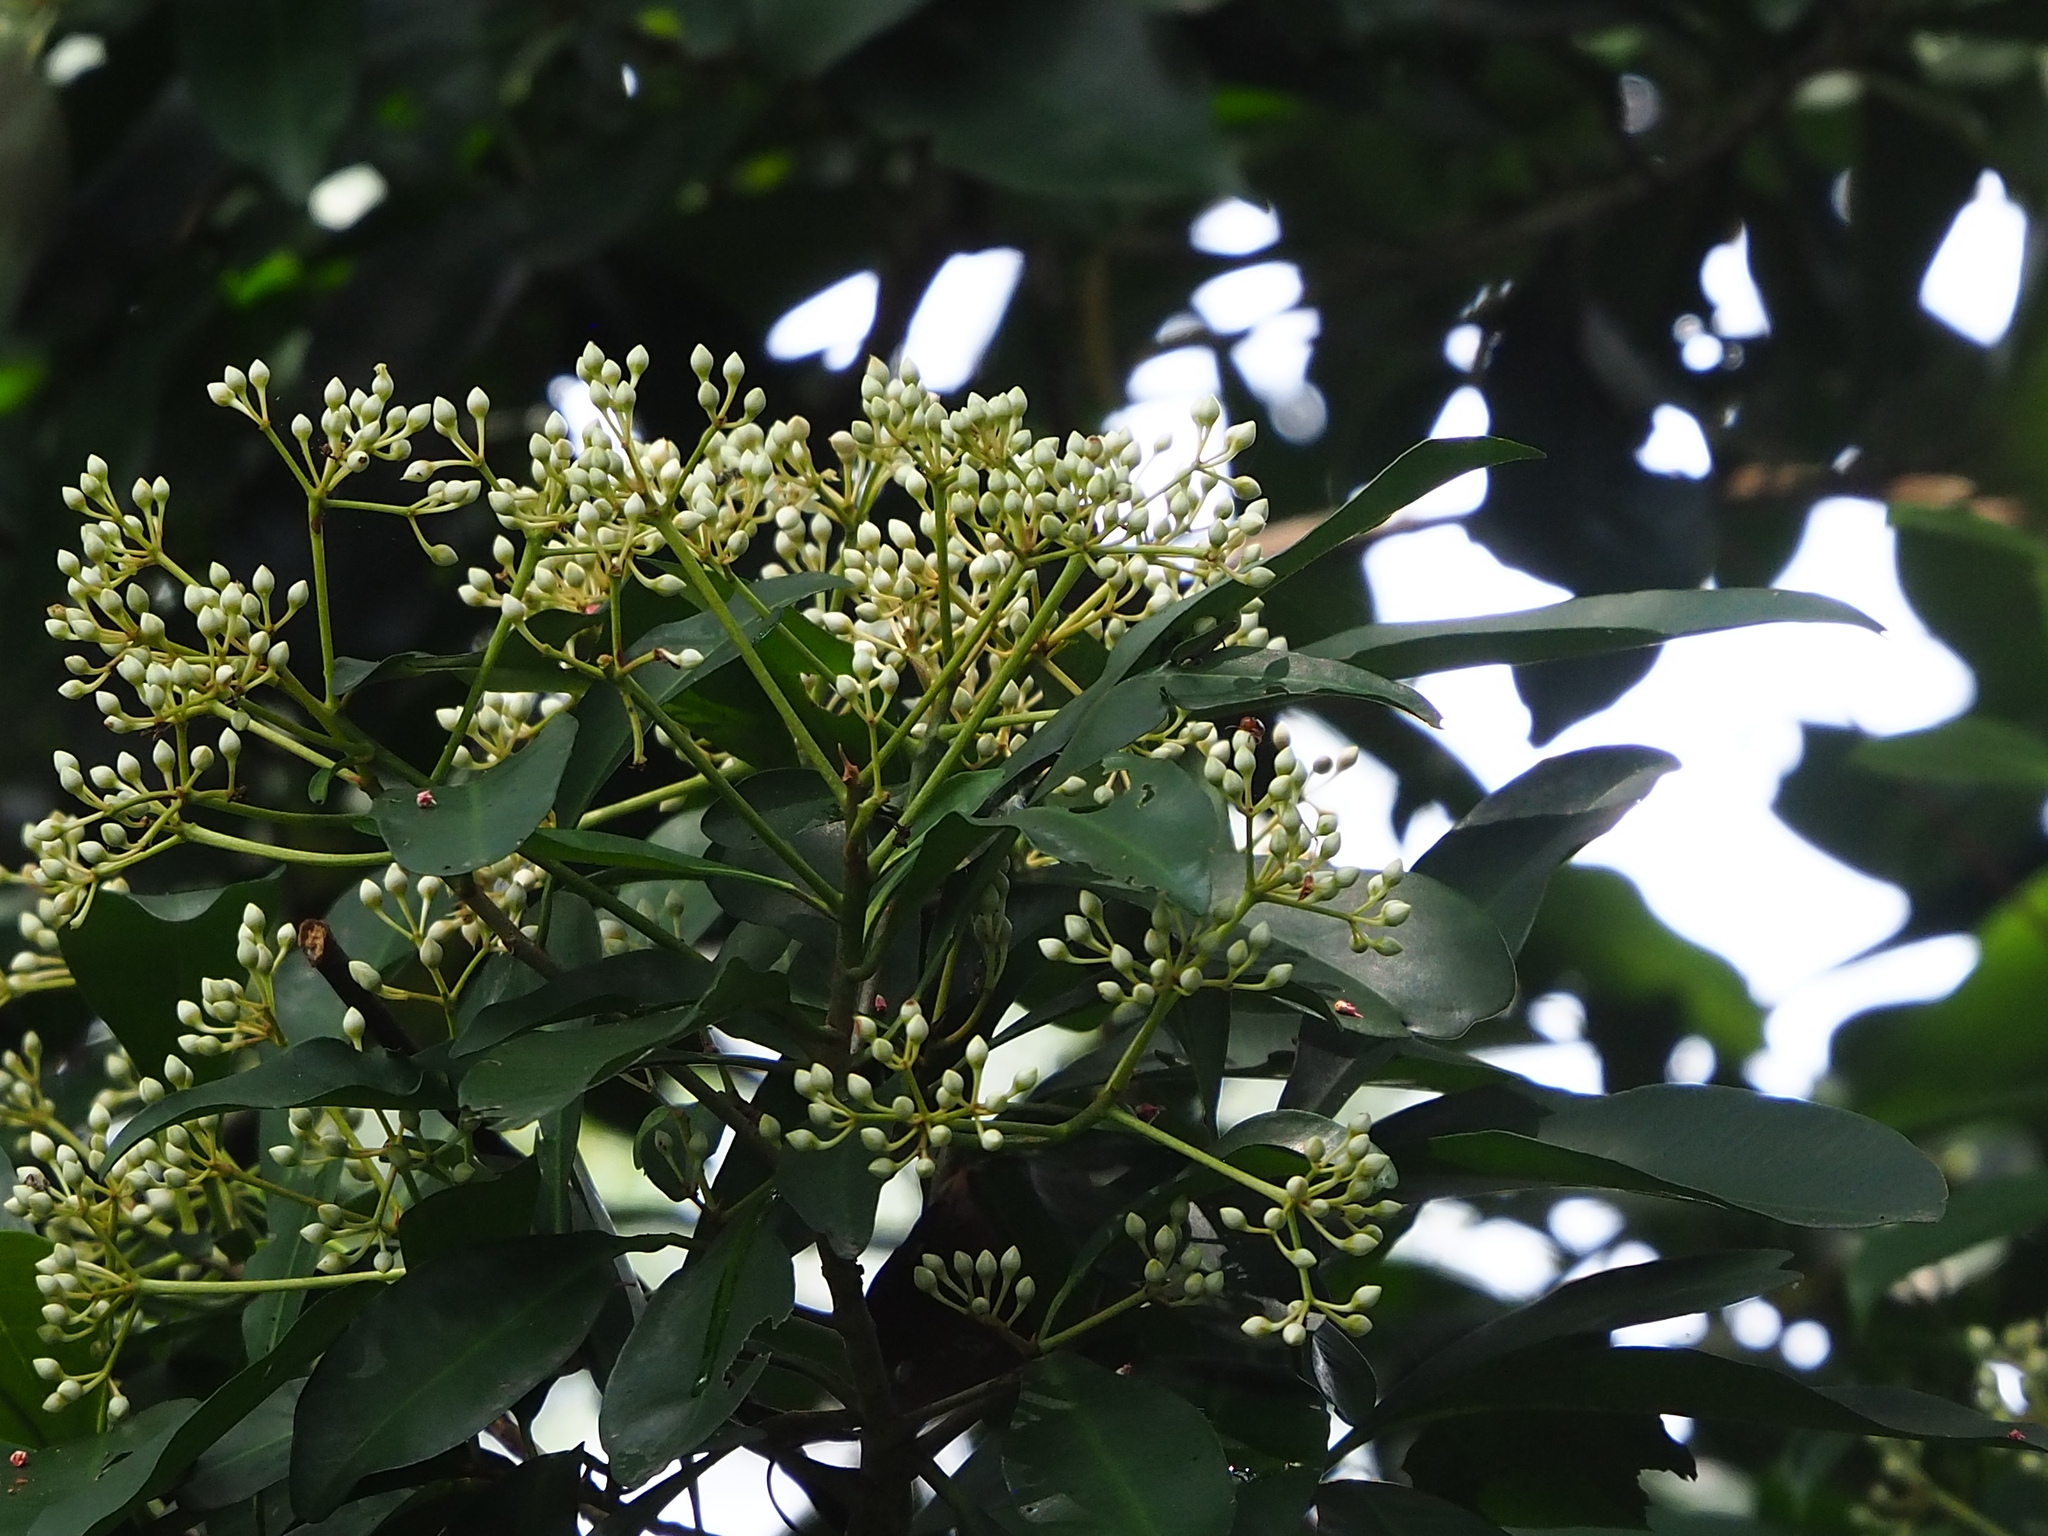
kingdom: Plantae
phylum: Tracheophyta
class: Magnoliopsida
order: Ericales
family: Primulaceae
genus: Ardisia
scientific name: Ardisia sieboldii
